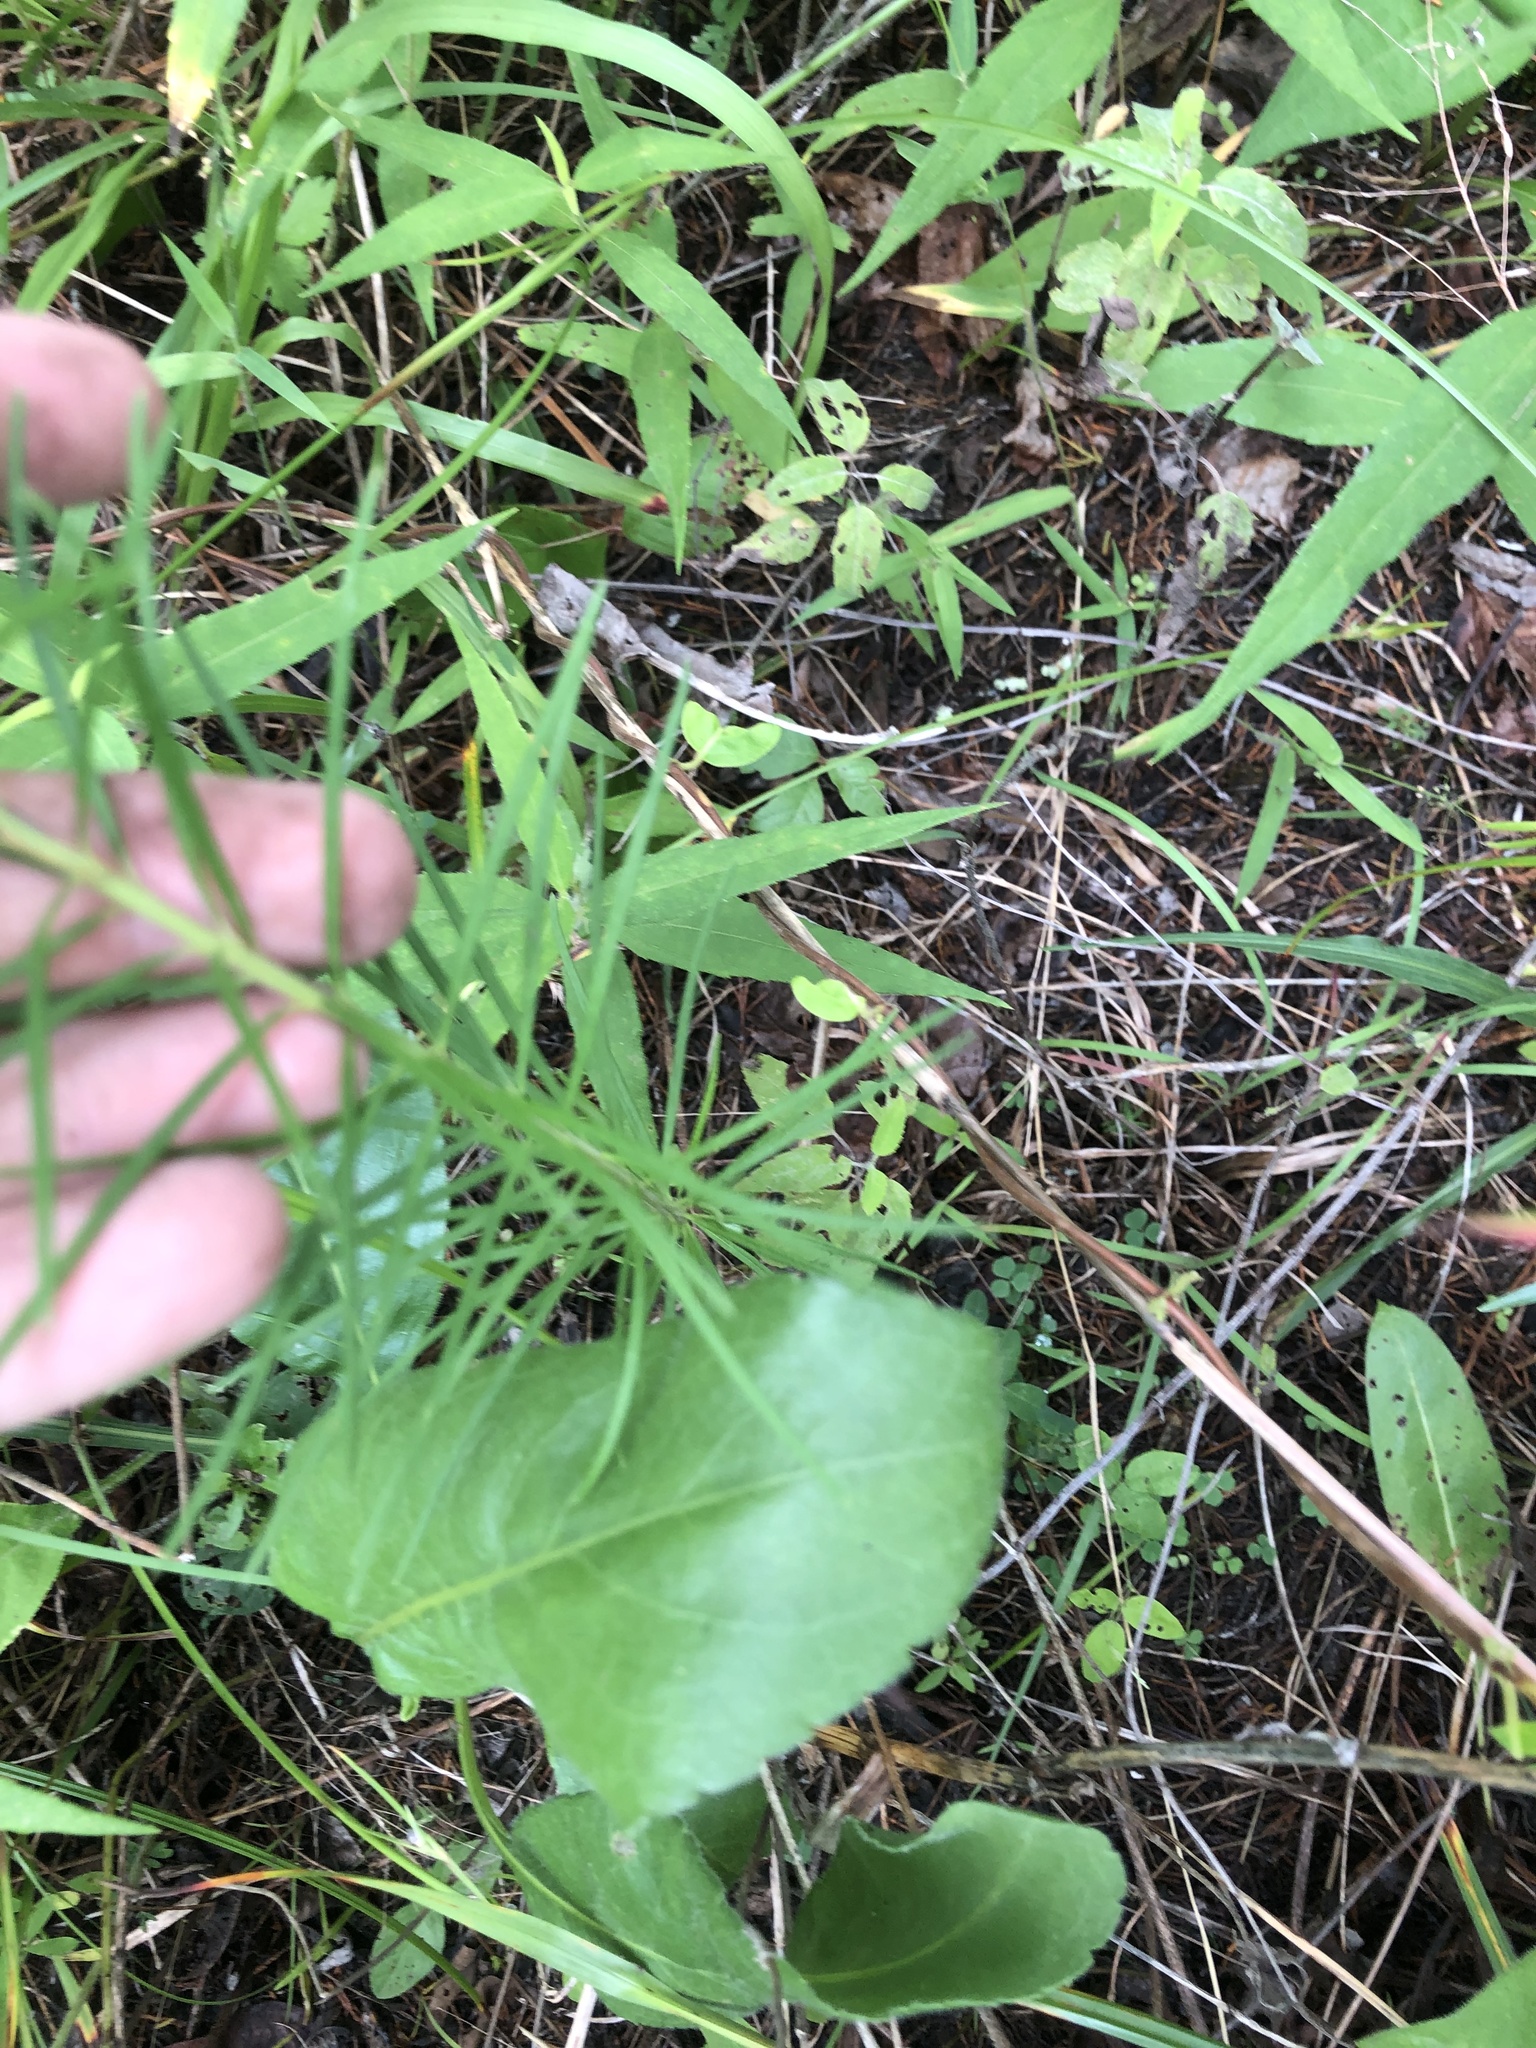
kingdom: Plantae
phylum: Tracheophyta
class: Magnoliopsida
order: Gentianales
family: Apocynaceae
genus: Asclepias
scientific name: Asclepias verticillata
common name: Eastern whorled milkweed
